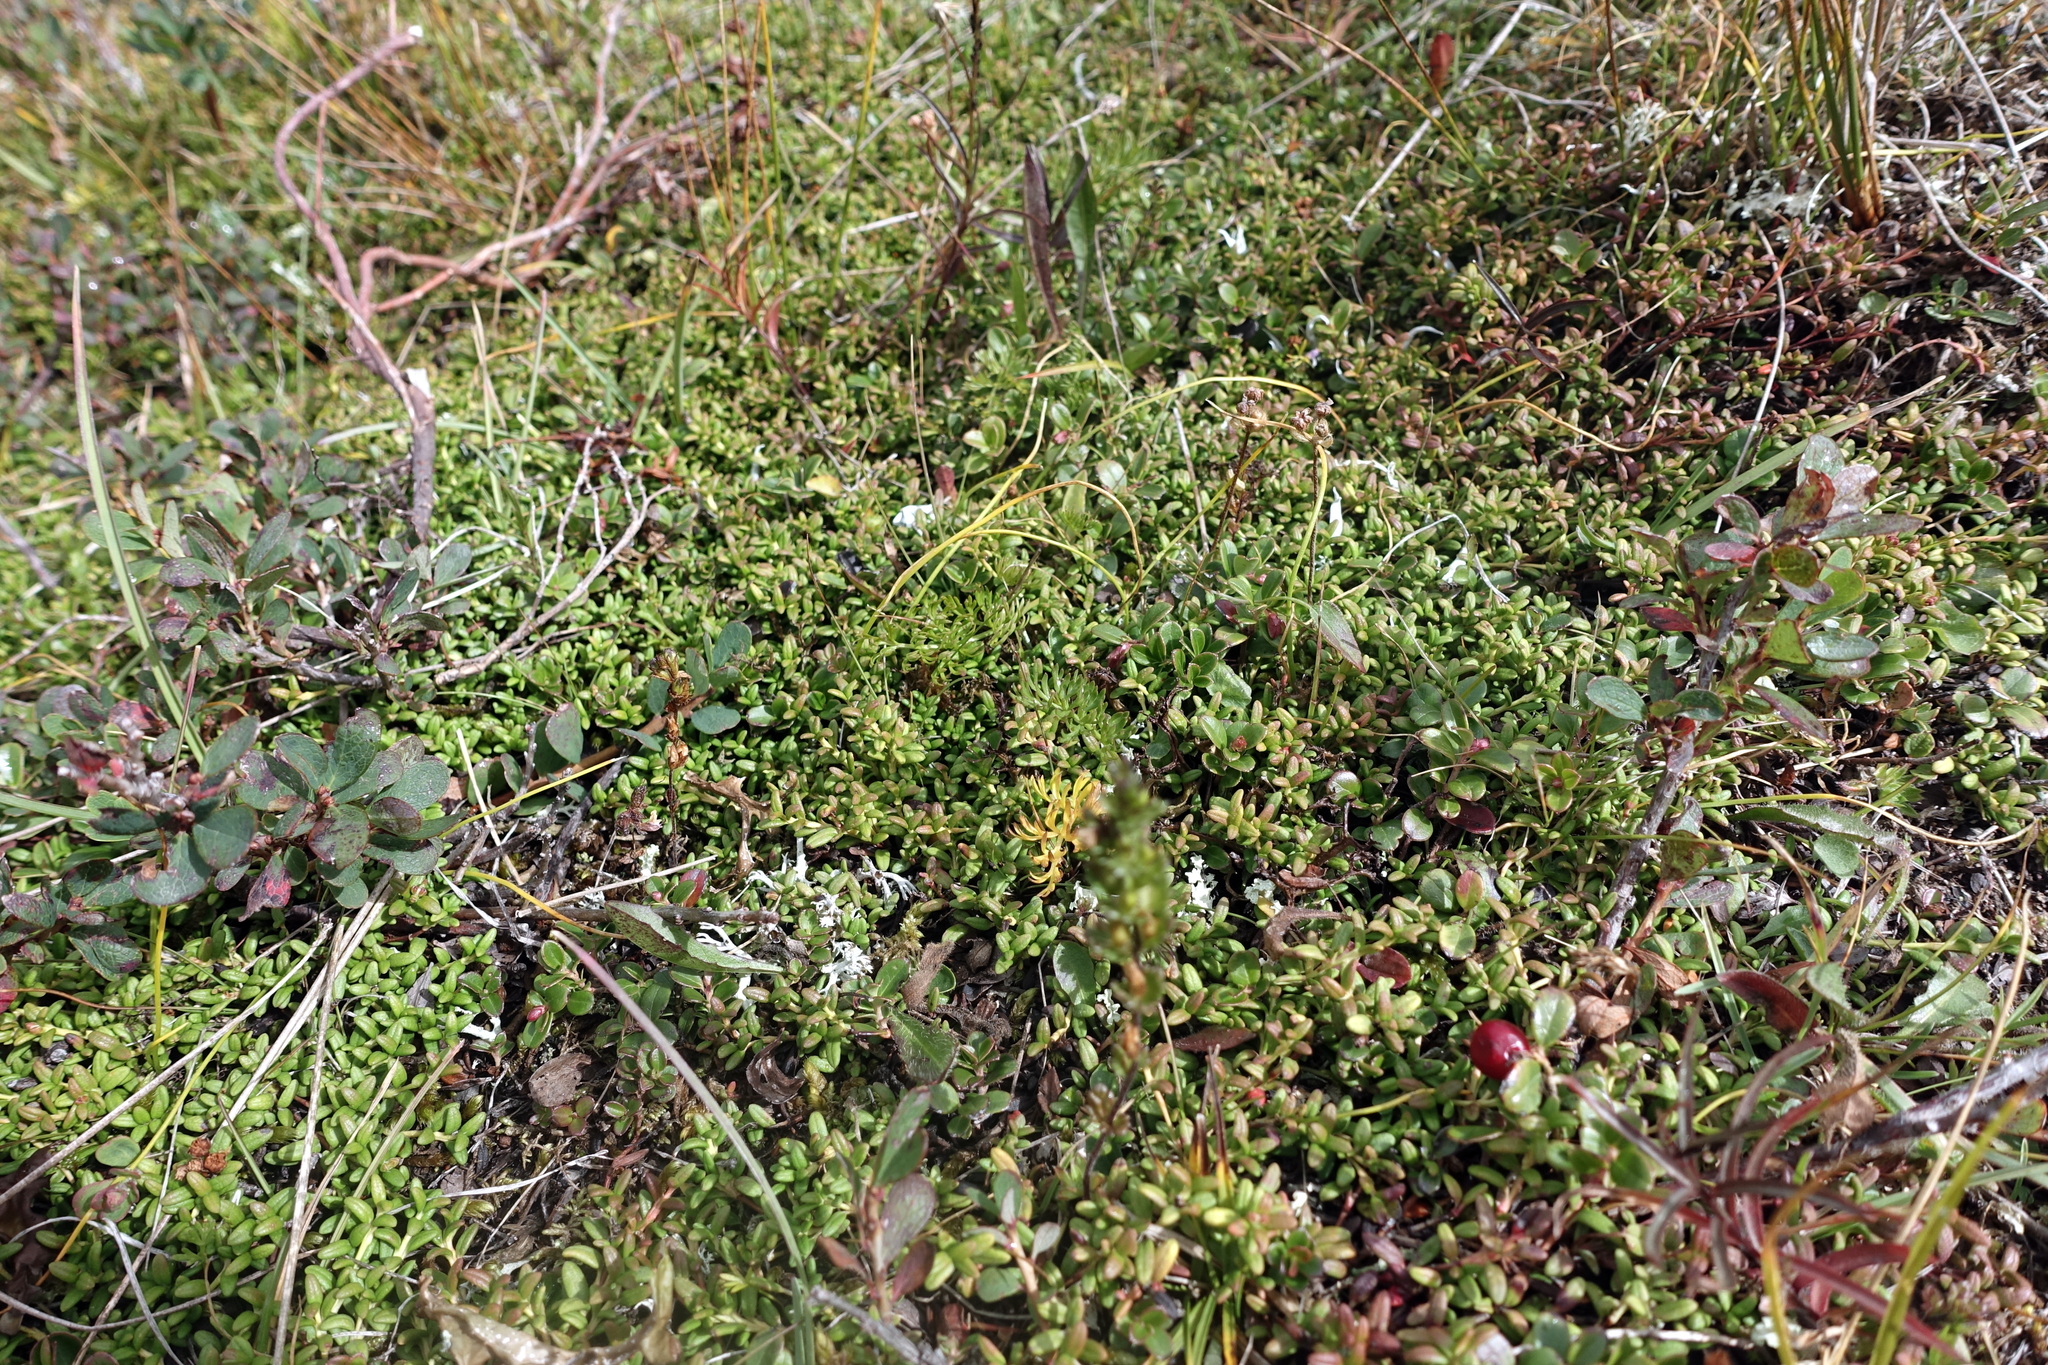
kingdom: Plantae
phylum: Tracheophyta
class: Magnoliopsida
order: Ericales
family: Ericaceae
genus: Kalmia
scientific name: Kalmia procumbens
